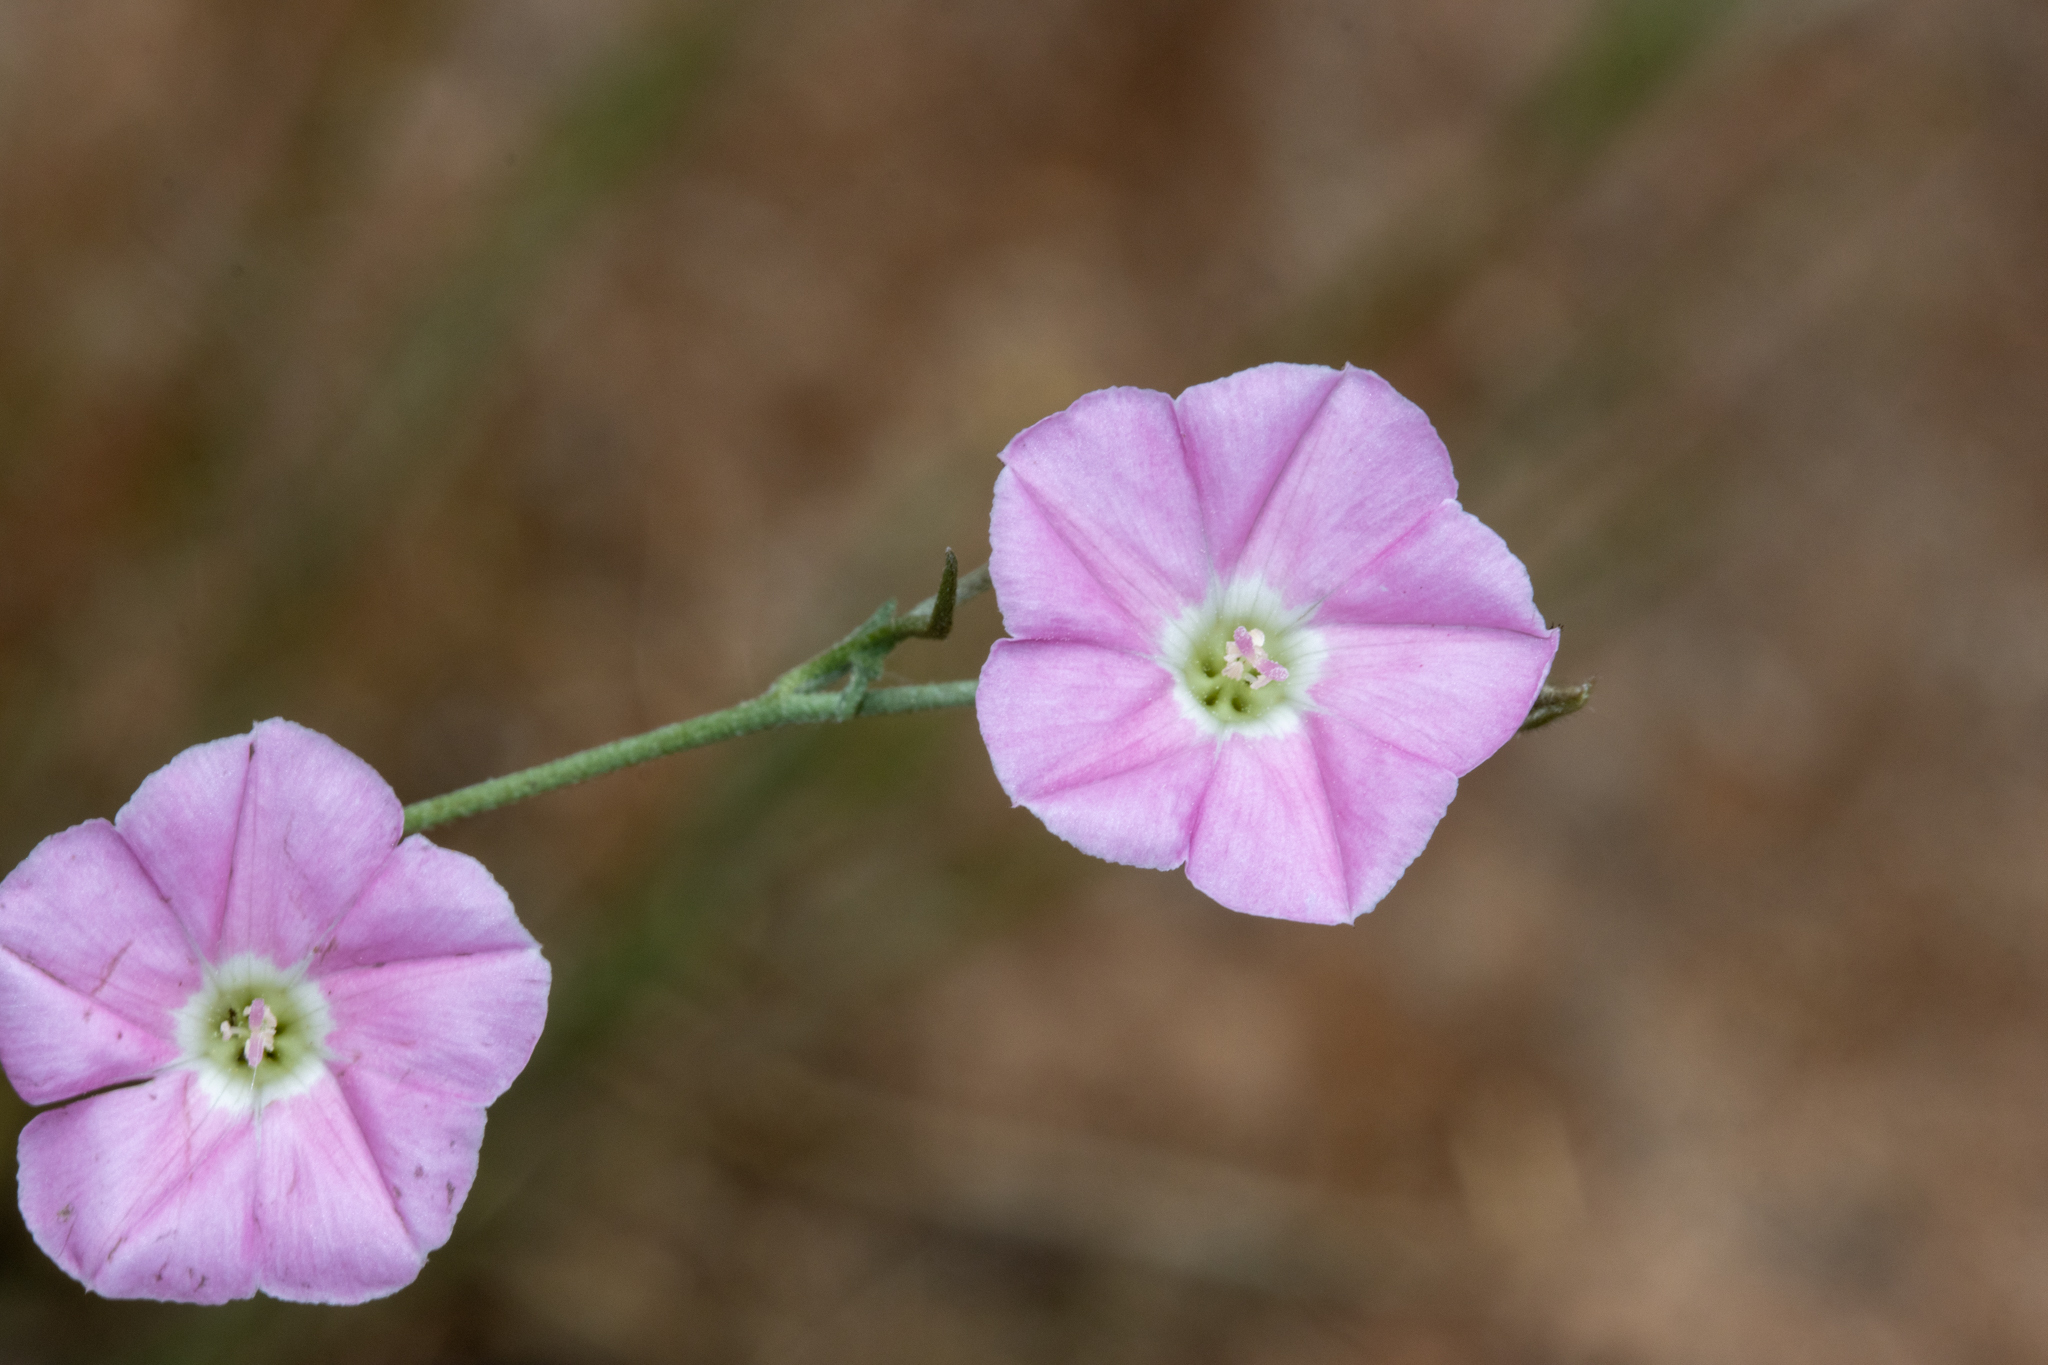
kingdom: Plantae
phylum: Tracheophyta
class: Magnoliopsida
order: Solanales
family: Convolvulaceae
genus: Convolvulus
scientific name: Convolvulus angustissimus
